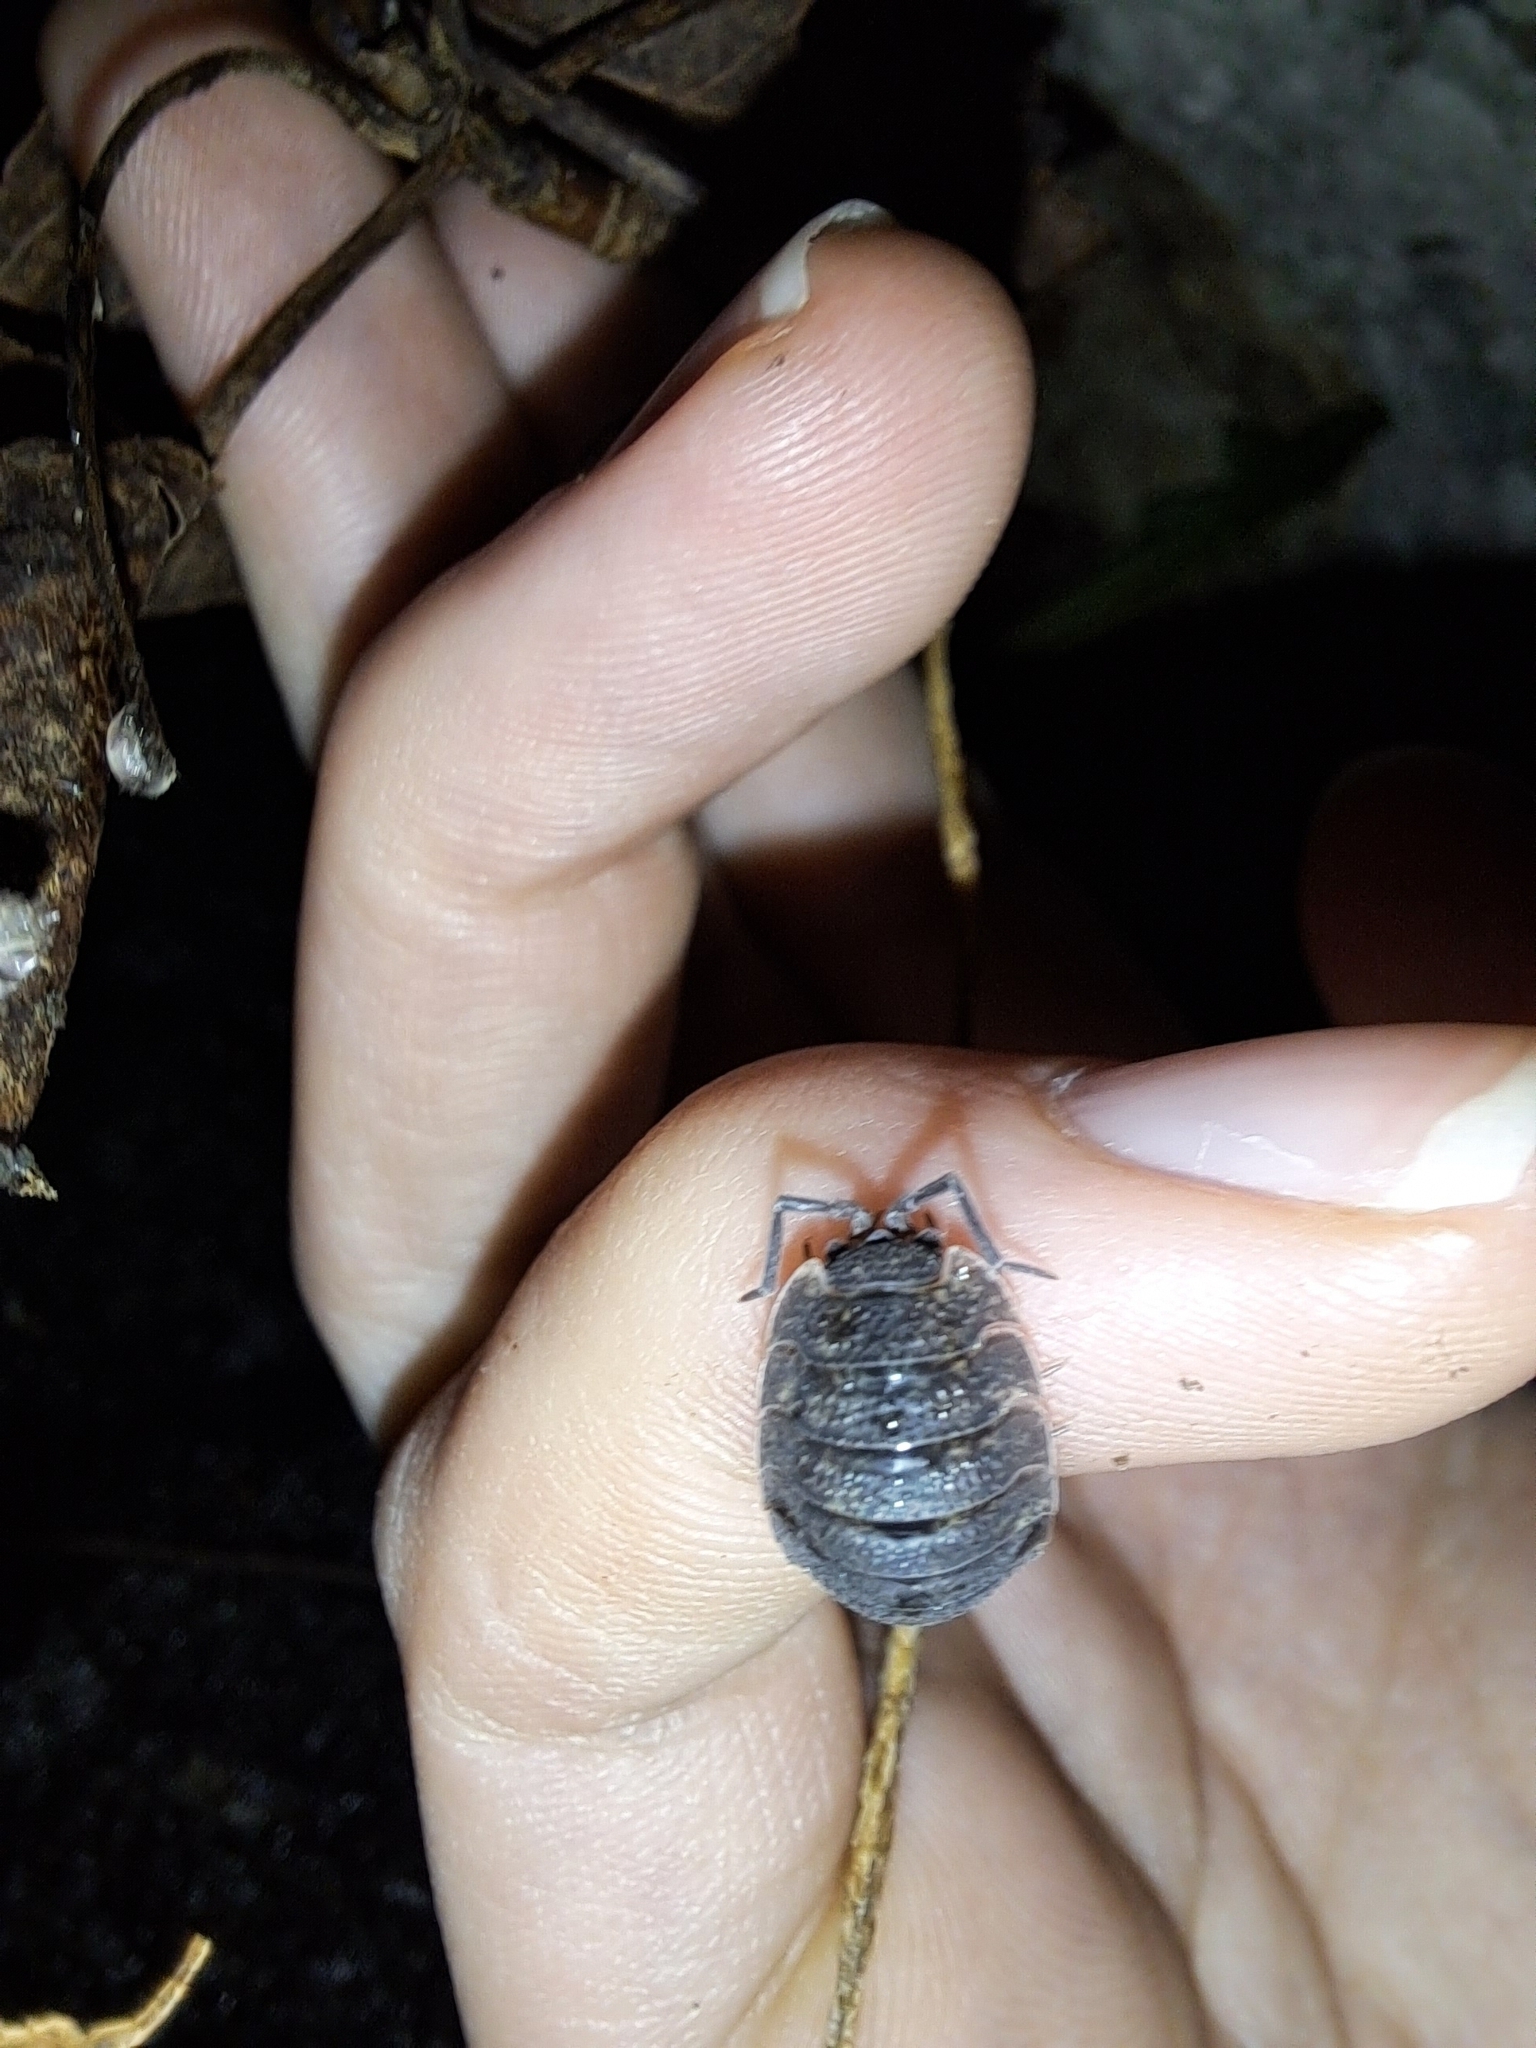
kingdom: Animalia
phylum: Arthropoda
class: Malacostraca
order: Isopoda
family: Porcellionidae
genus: Porcellio
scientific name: Porcellio scaber
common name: Common rough woodlouse
